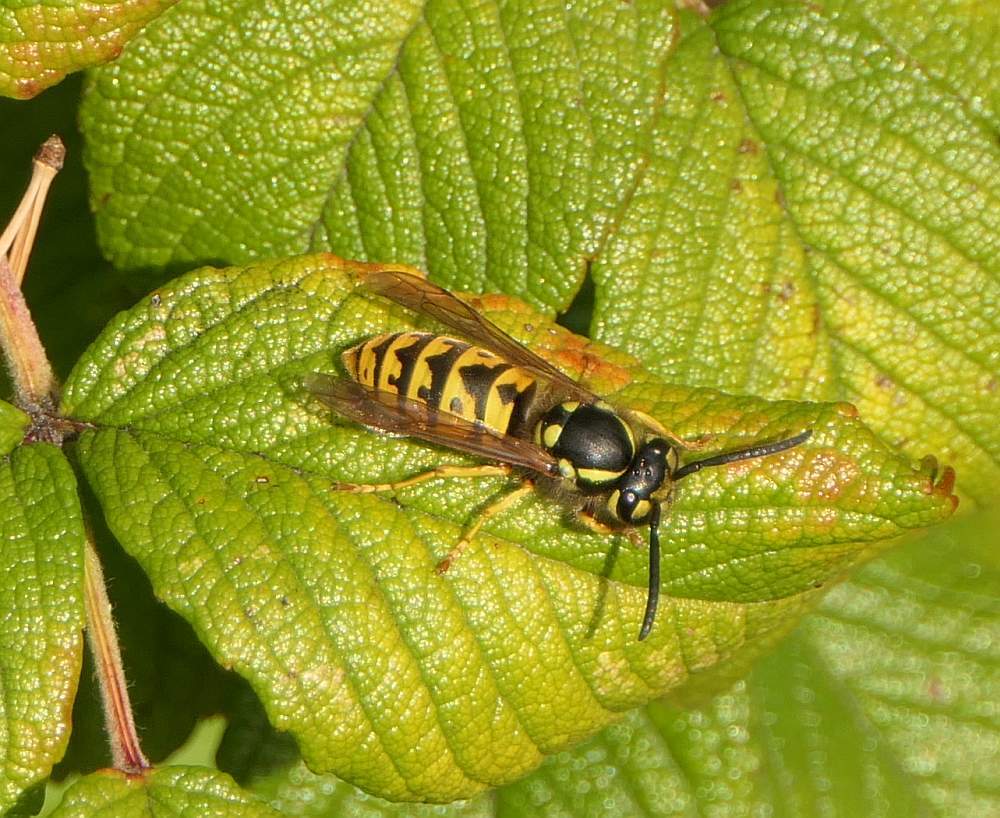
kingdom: Animalia
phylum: Arthropoda
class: Insecta
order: Hymenoptera
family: Vespidae
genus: Vespula
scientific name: Vespula germanica
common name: German wasp
